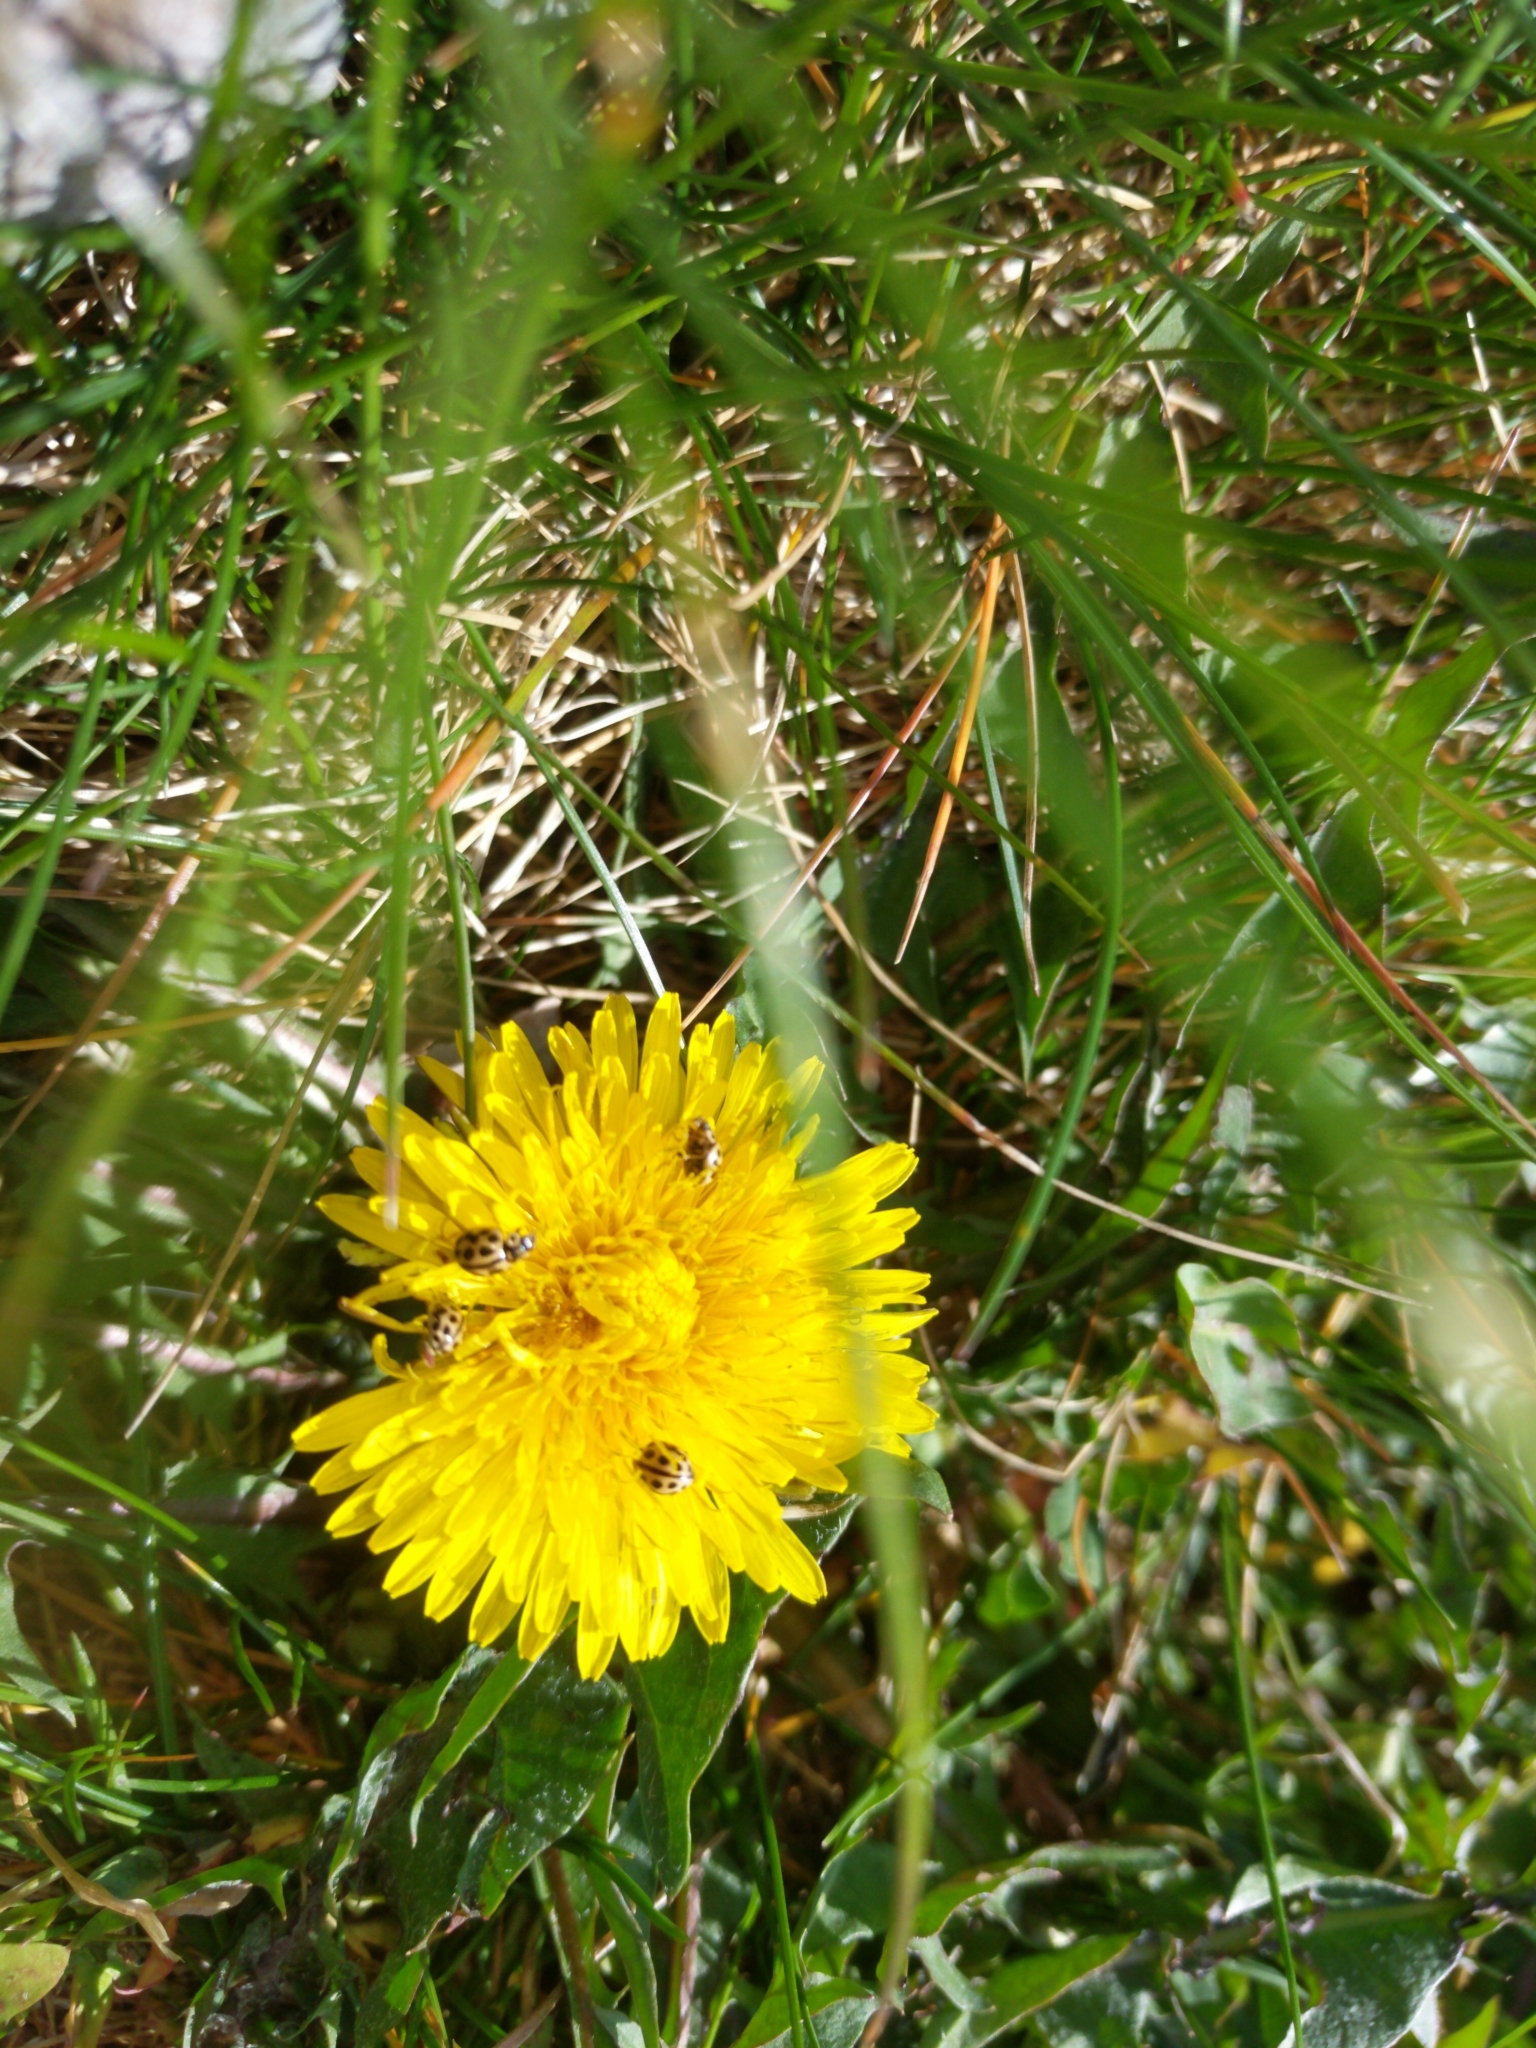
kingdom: Animalia
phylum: Arthropoda
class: Insecta
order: Coleoptera
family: Coccinellidae
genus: Tytthaspis
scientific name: Tytthaspis sedecimpunctata
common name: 16-spot ladybird
